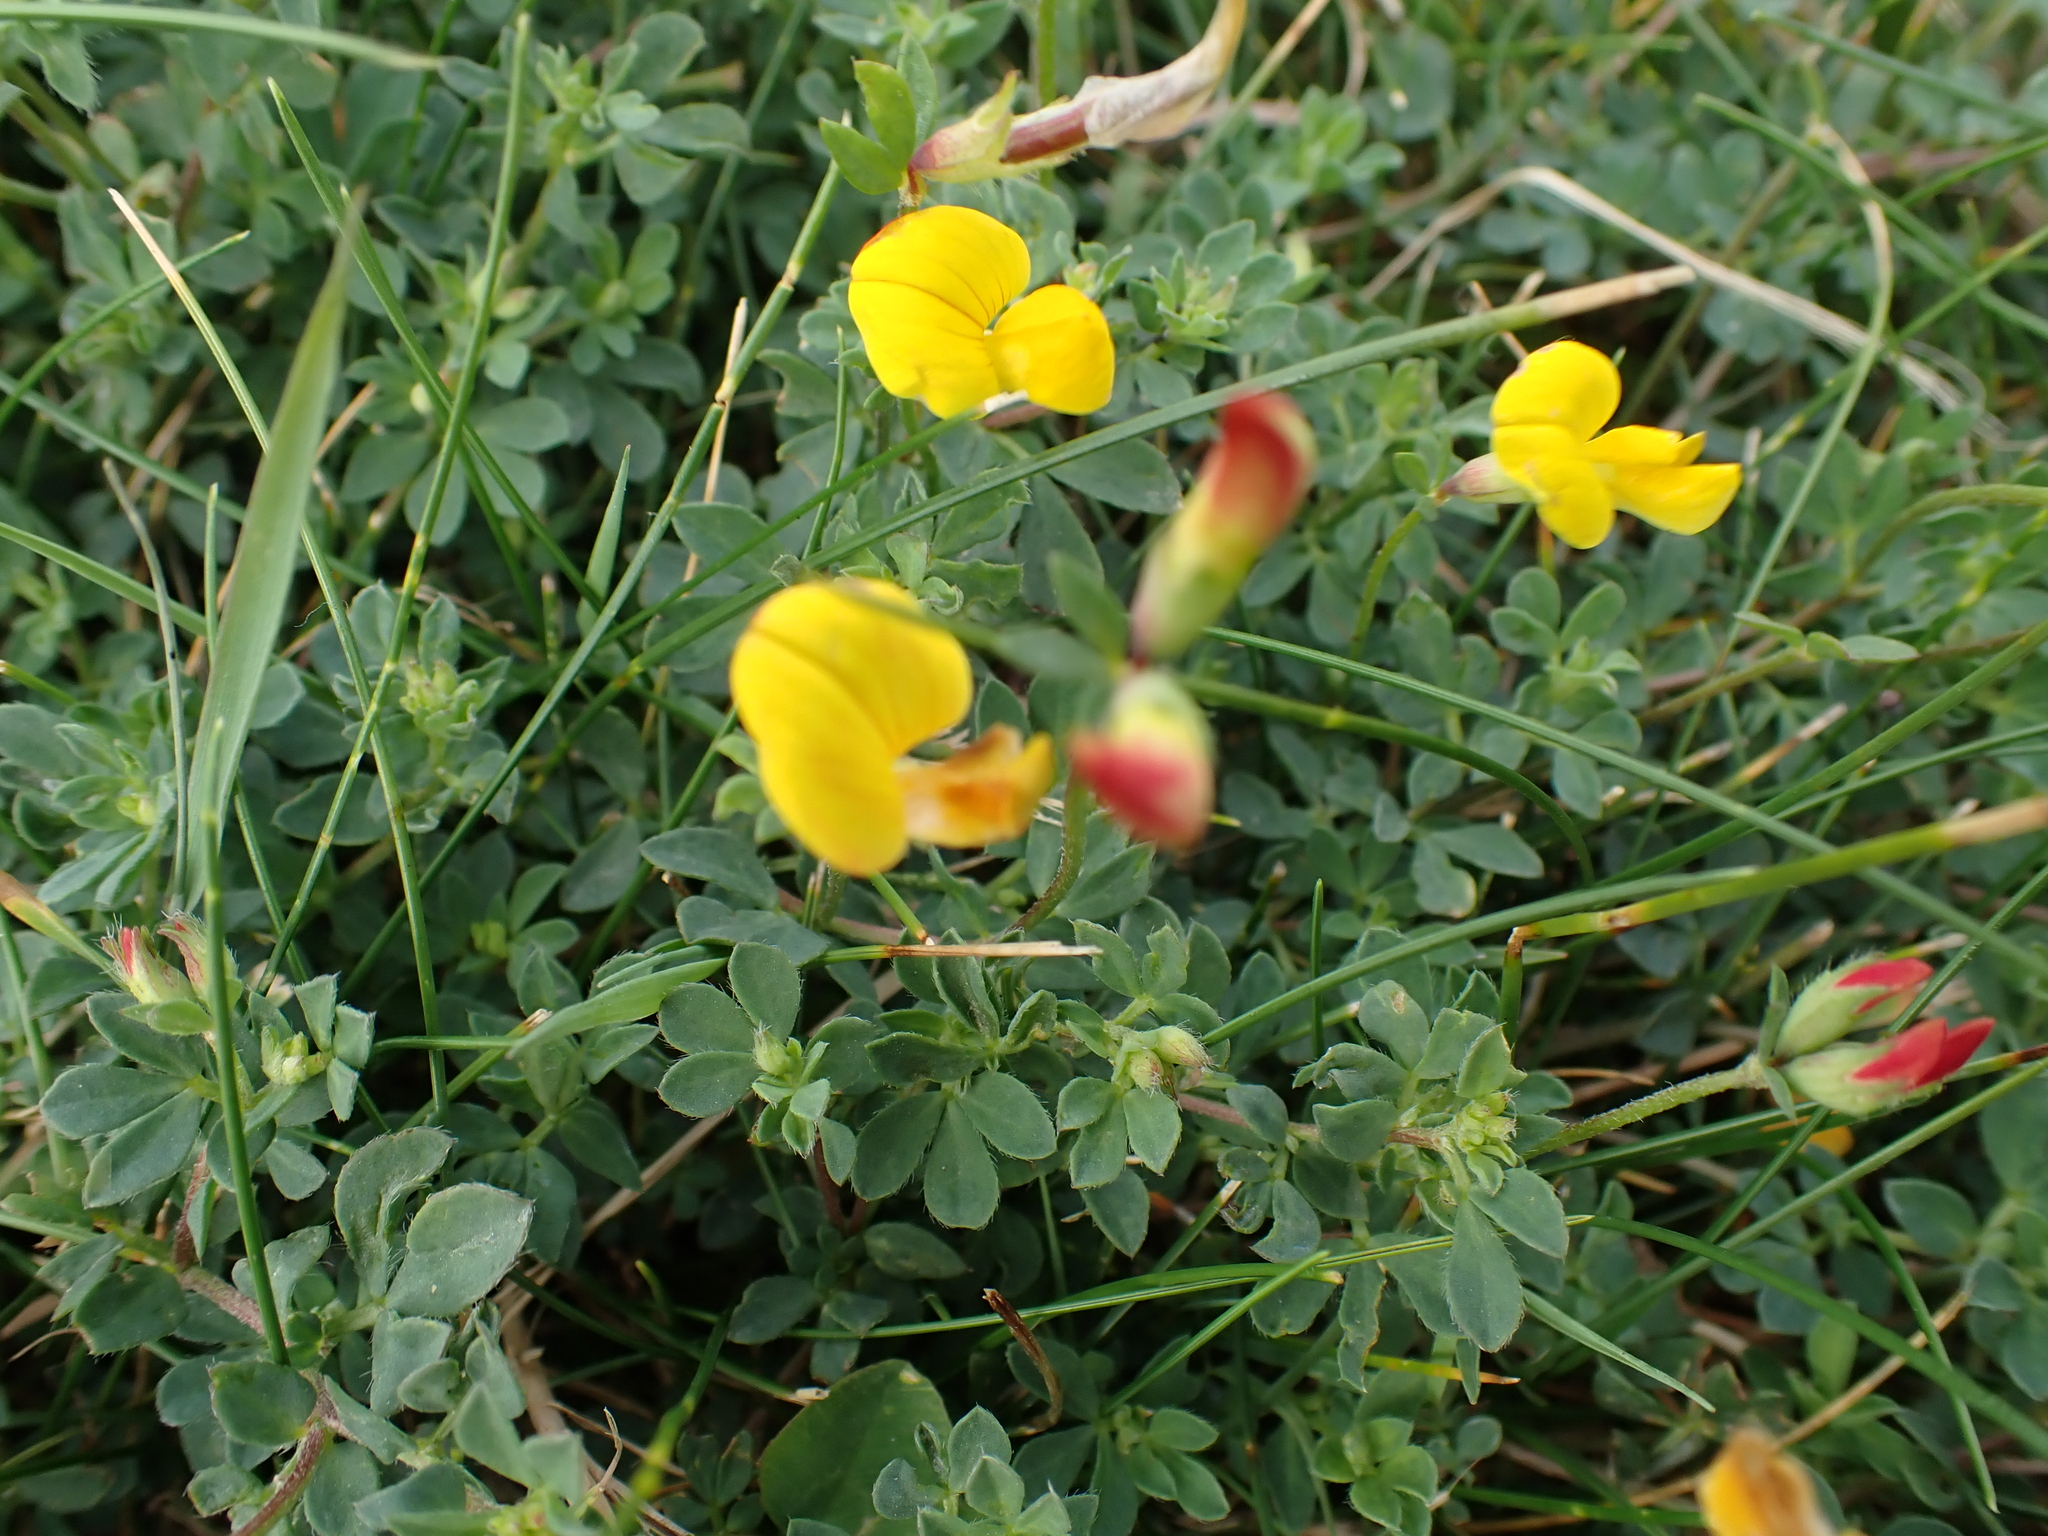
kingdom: Plantae
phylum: Tracheophyta
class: Magnoliopsida
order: Fabales
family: Fabaceae
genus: Lotus
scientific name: Lotus corniculatus
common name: Common bird's-foot-trefoil
